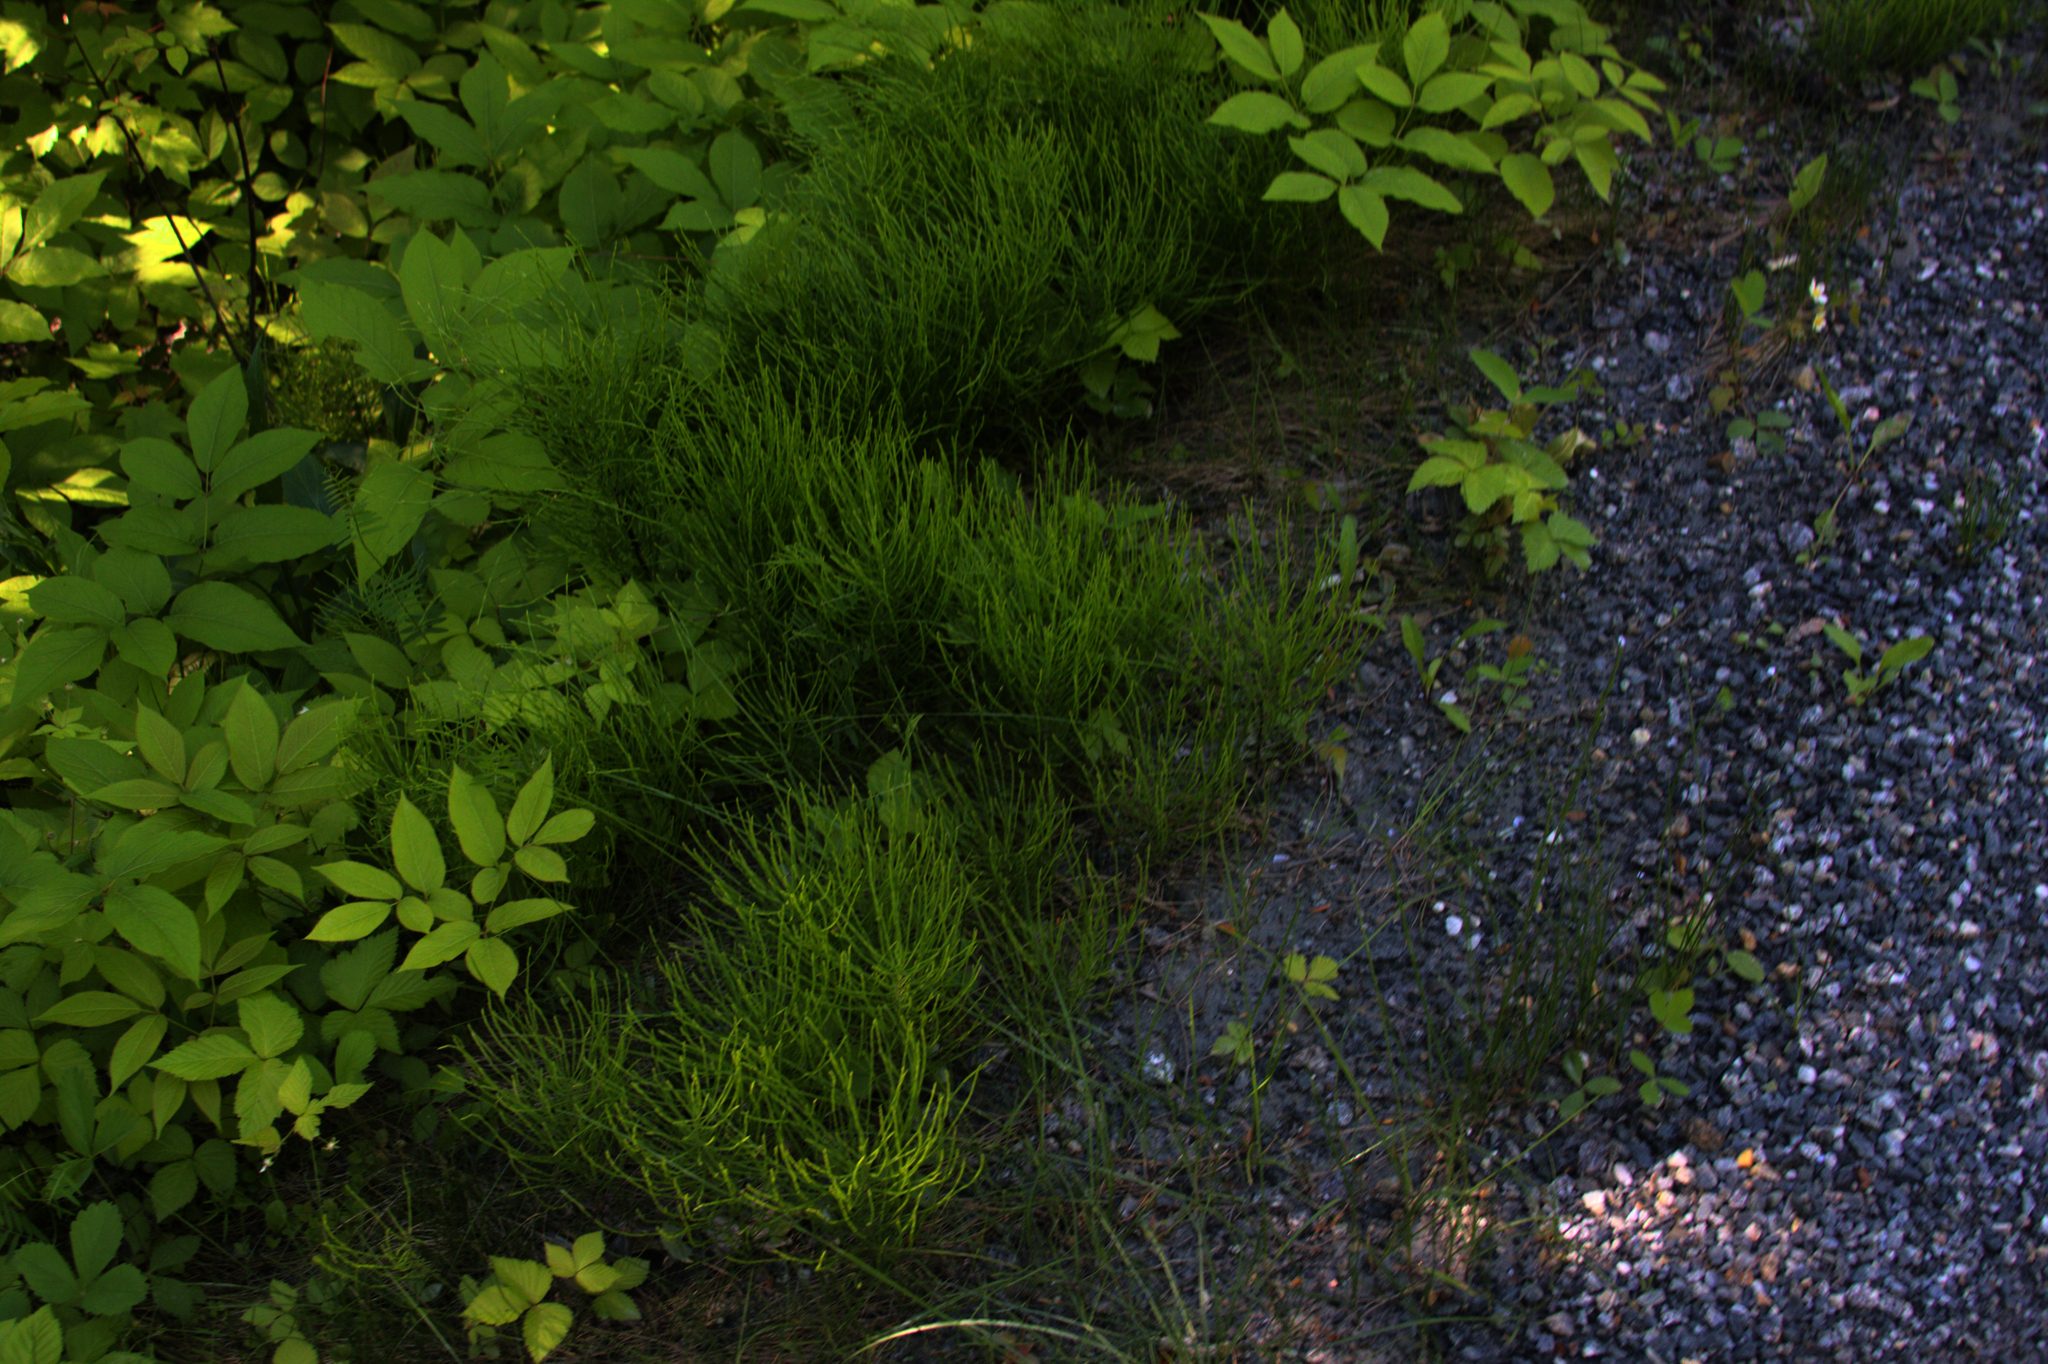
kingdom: Plantae
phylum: Tracheophyta
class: Polypodiopsida
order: Equisetales
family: Equisetaceae
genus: Equisetum
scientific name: Equisetum arvense
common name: Field horsetail
